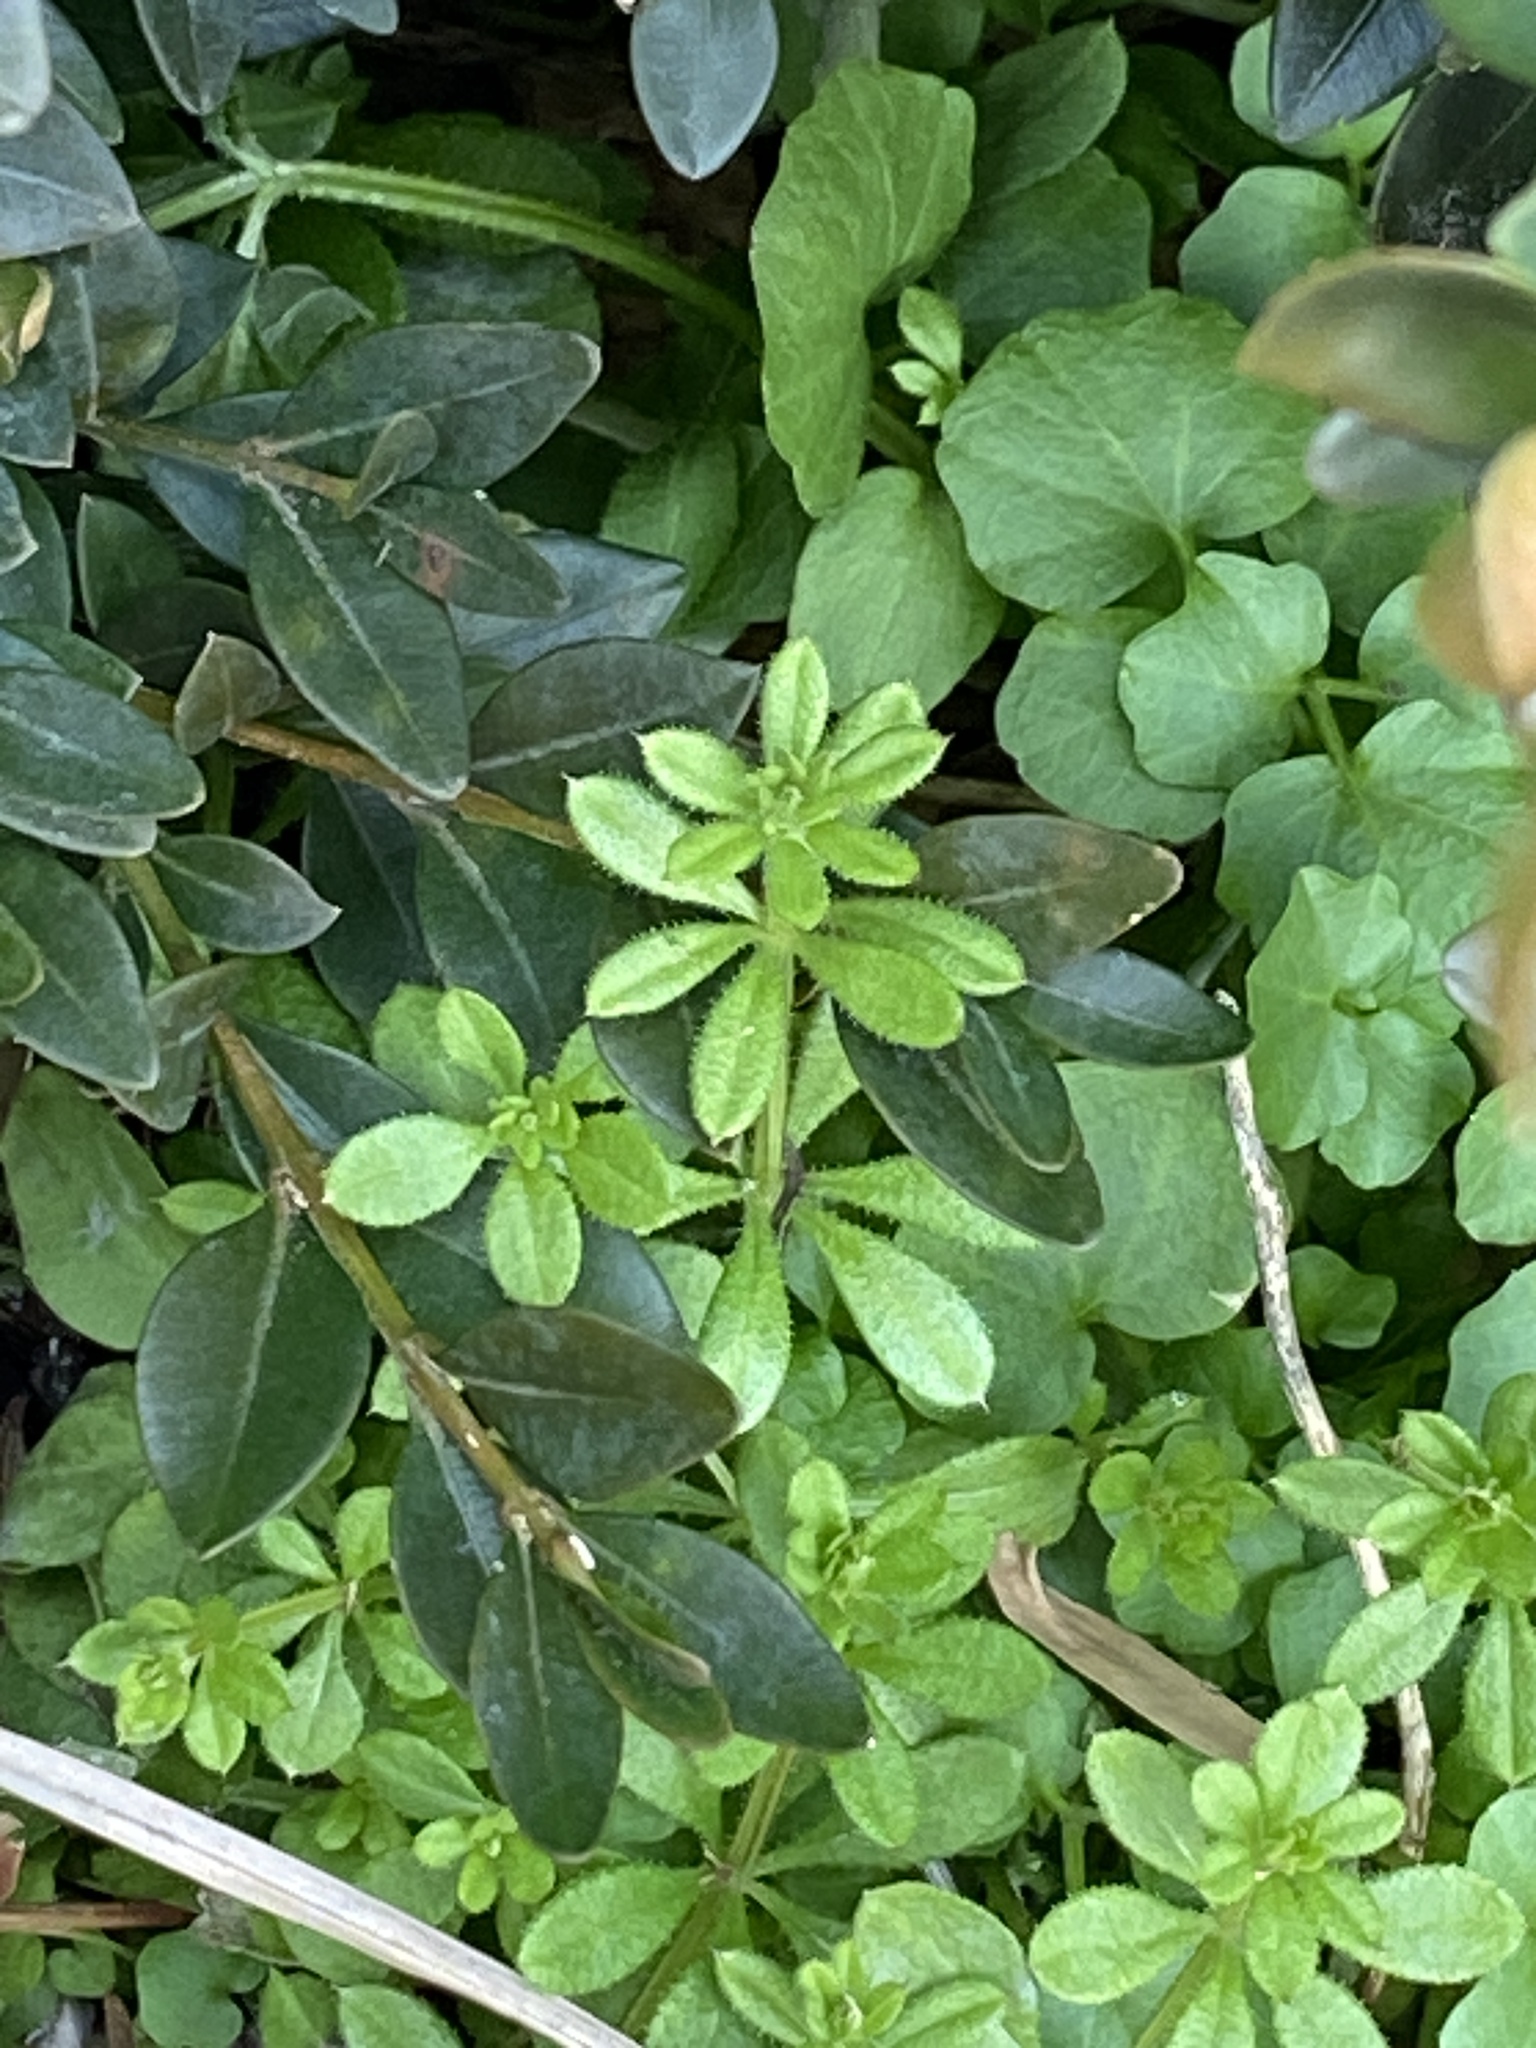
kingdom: Plantae
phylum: Tracheophyta
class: Magnoliopsida
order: Gentianales
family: Rubiaceae
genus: Galium
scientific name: Galium aparine
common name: Cleavers
